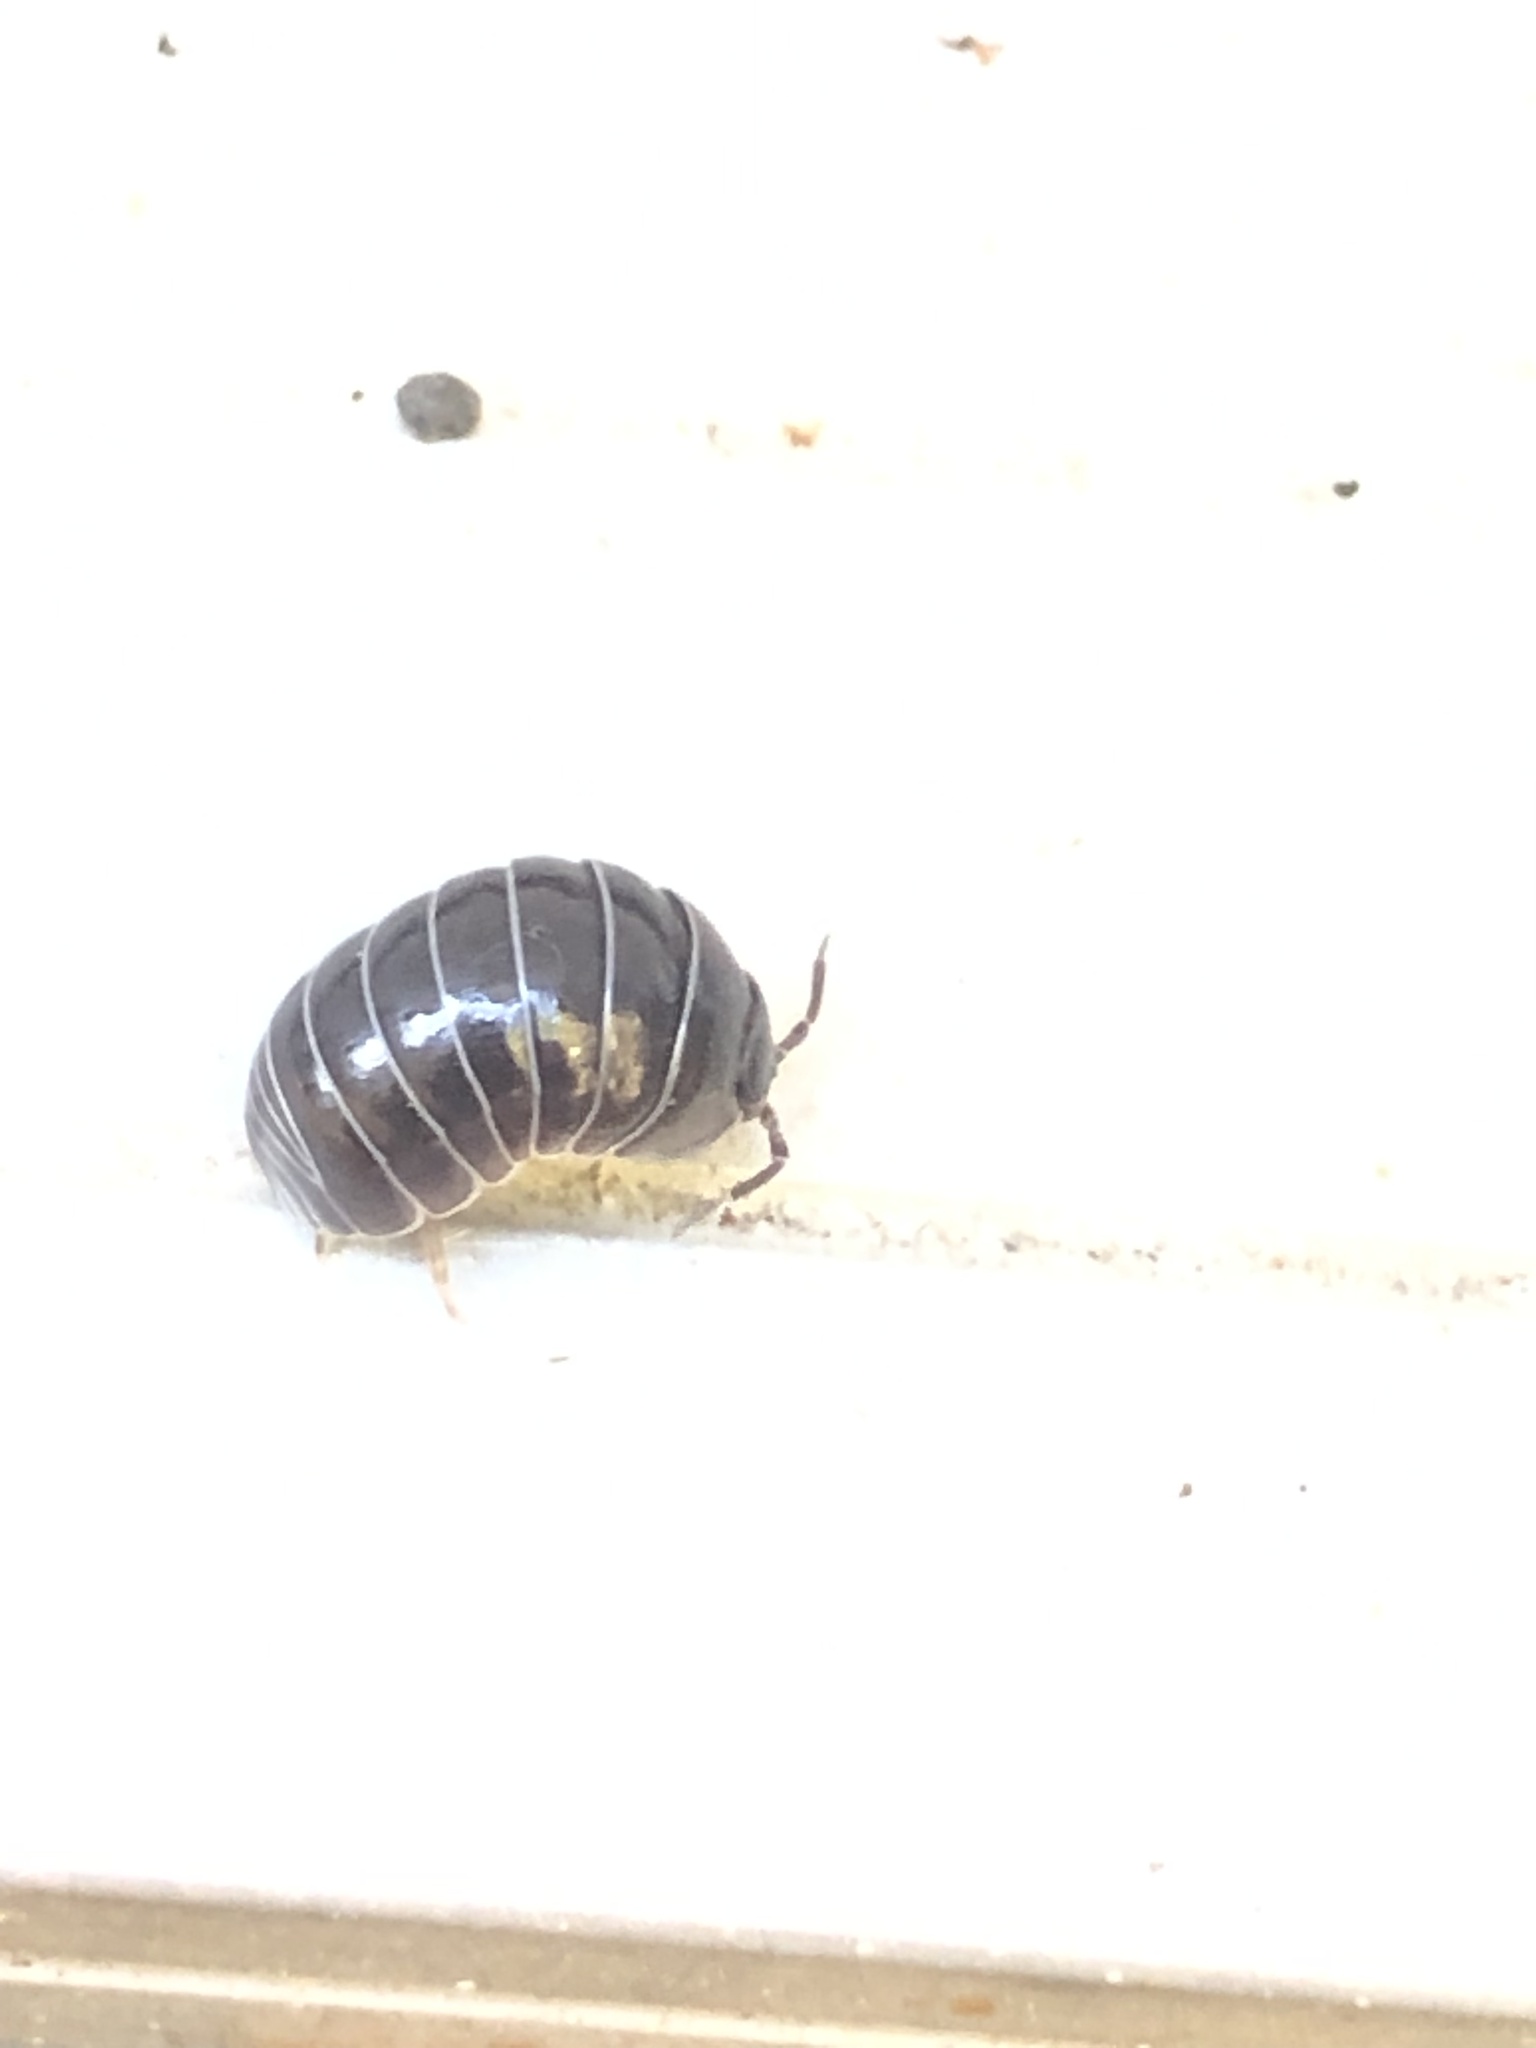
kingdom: Animalia
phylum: Arthropoda
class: Malacostraca
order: Isopoda
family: Armadillidiidae
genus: Armadillidium
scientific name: Armadillidium vulgare
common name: Common pill woodlouse
